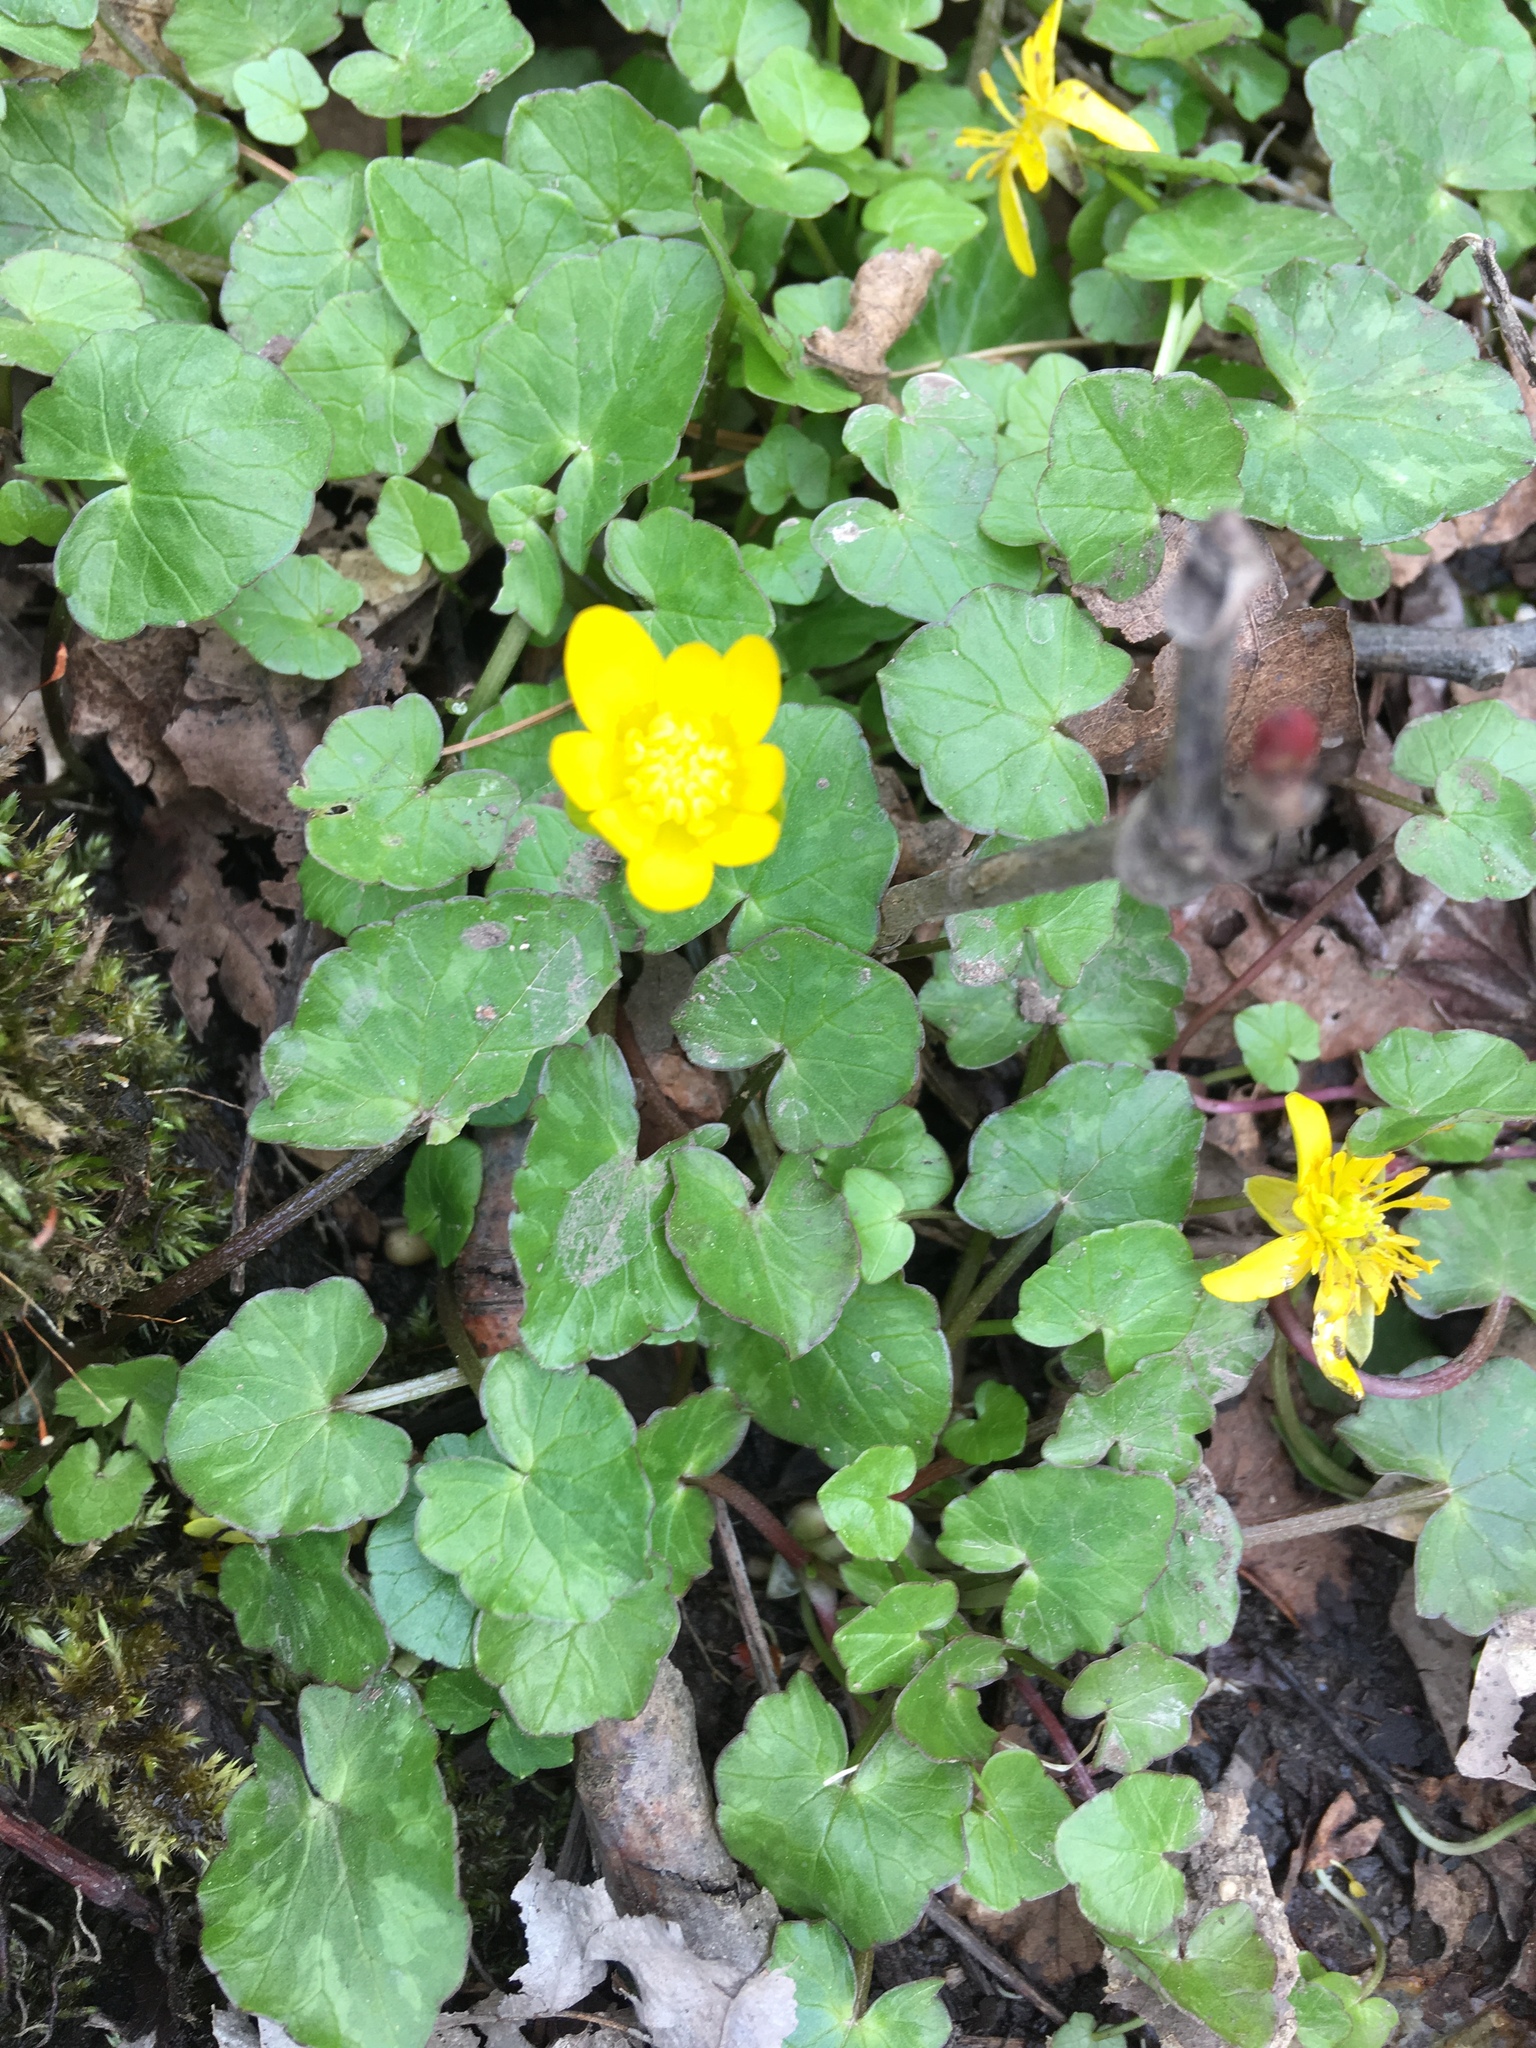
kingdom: Plantae
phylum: Tracheophyta
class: Magnoliopsida
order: Ranunculales
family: Ranunculaceae
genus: Ficaria
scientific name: Ficaria verna
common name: Lesser celandine
